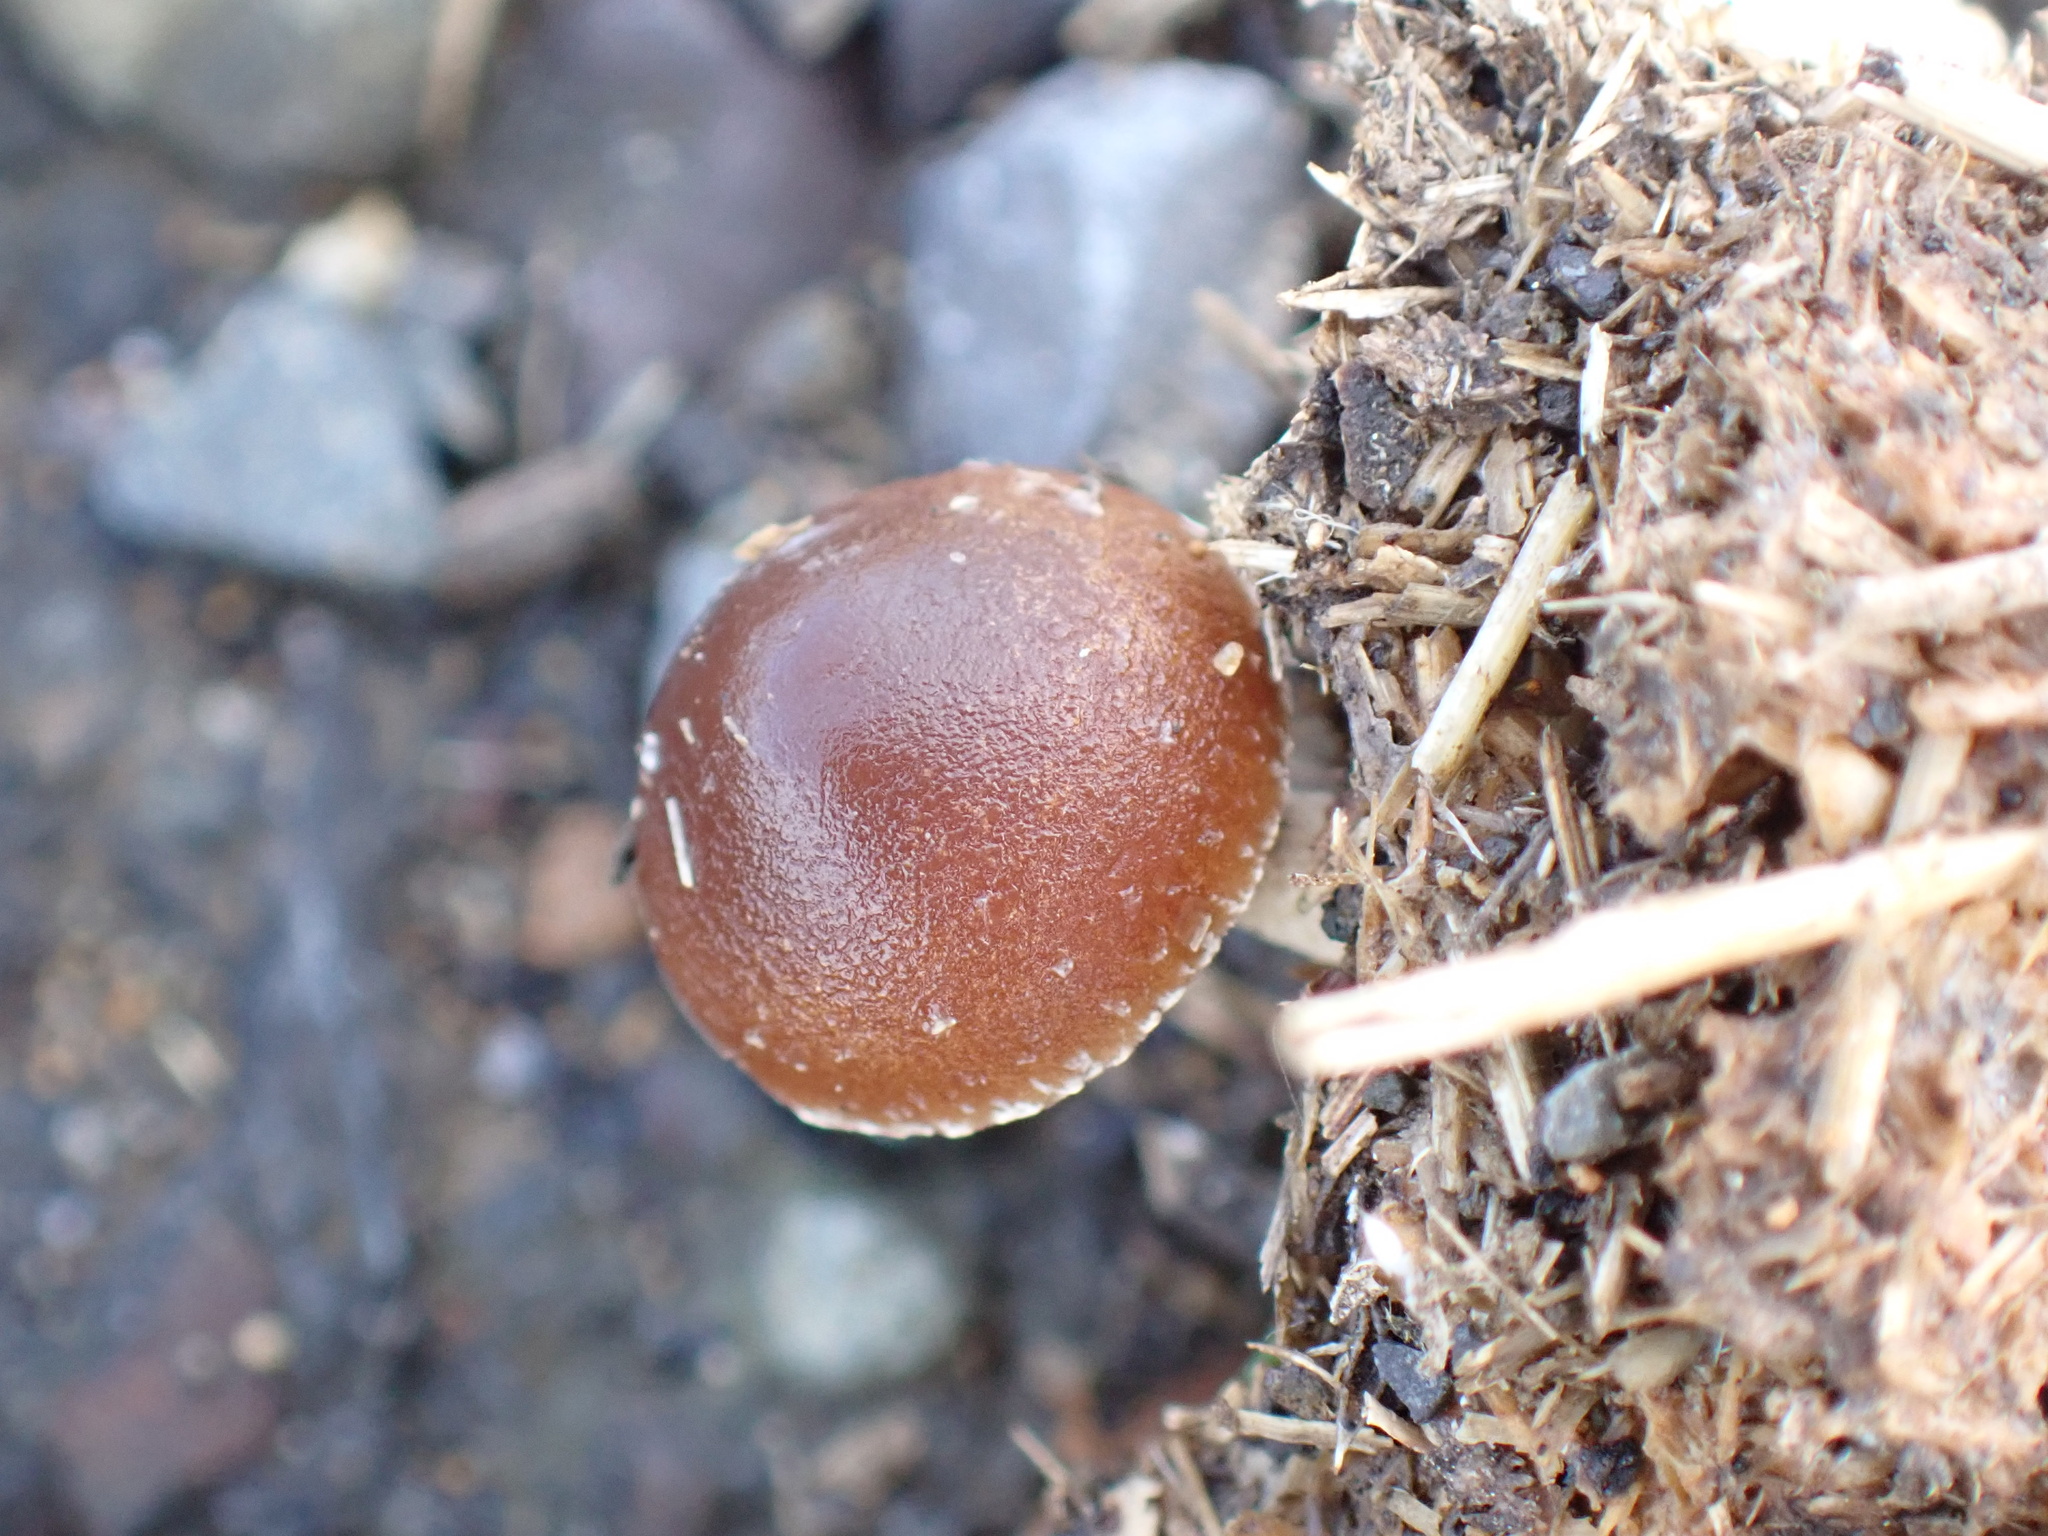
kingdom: Fungi
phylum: Basidiomycota
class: Agaricomycetes
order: Agaricales
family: Strophariaceae
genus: Deconica
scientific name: Deconica coprophila
